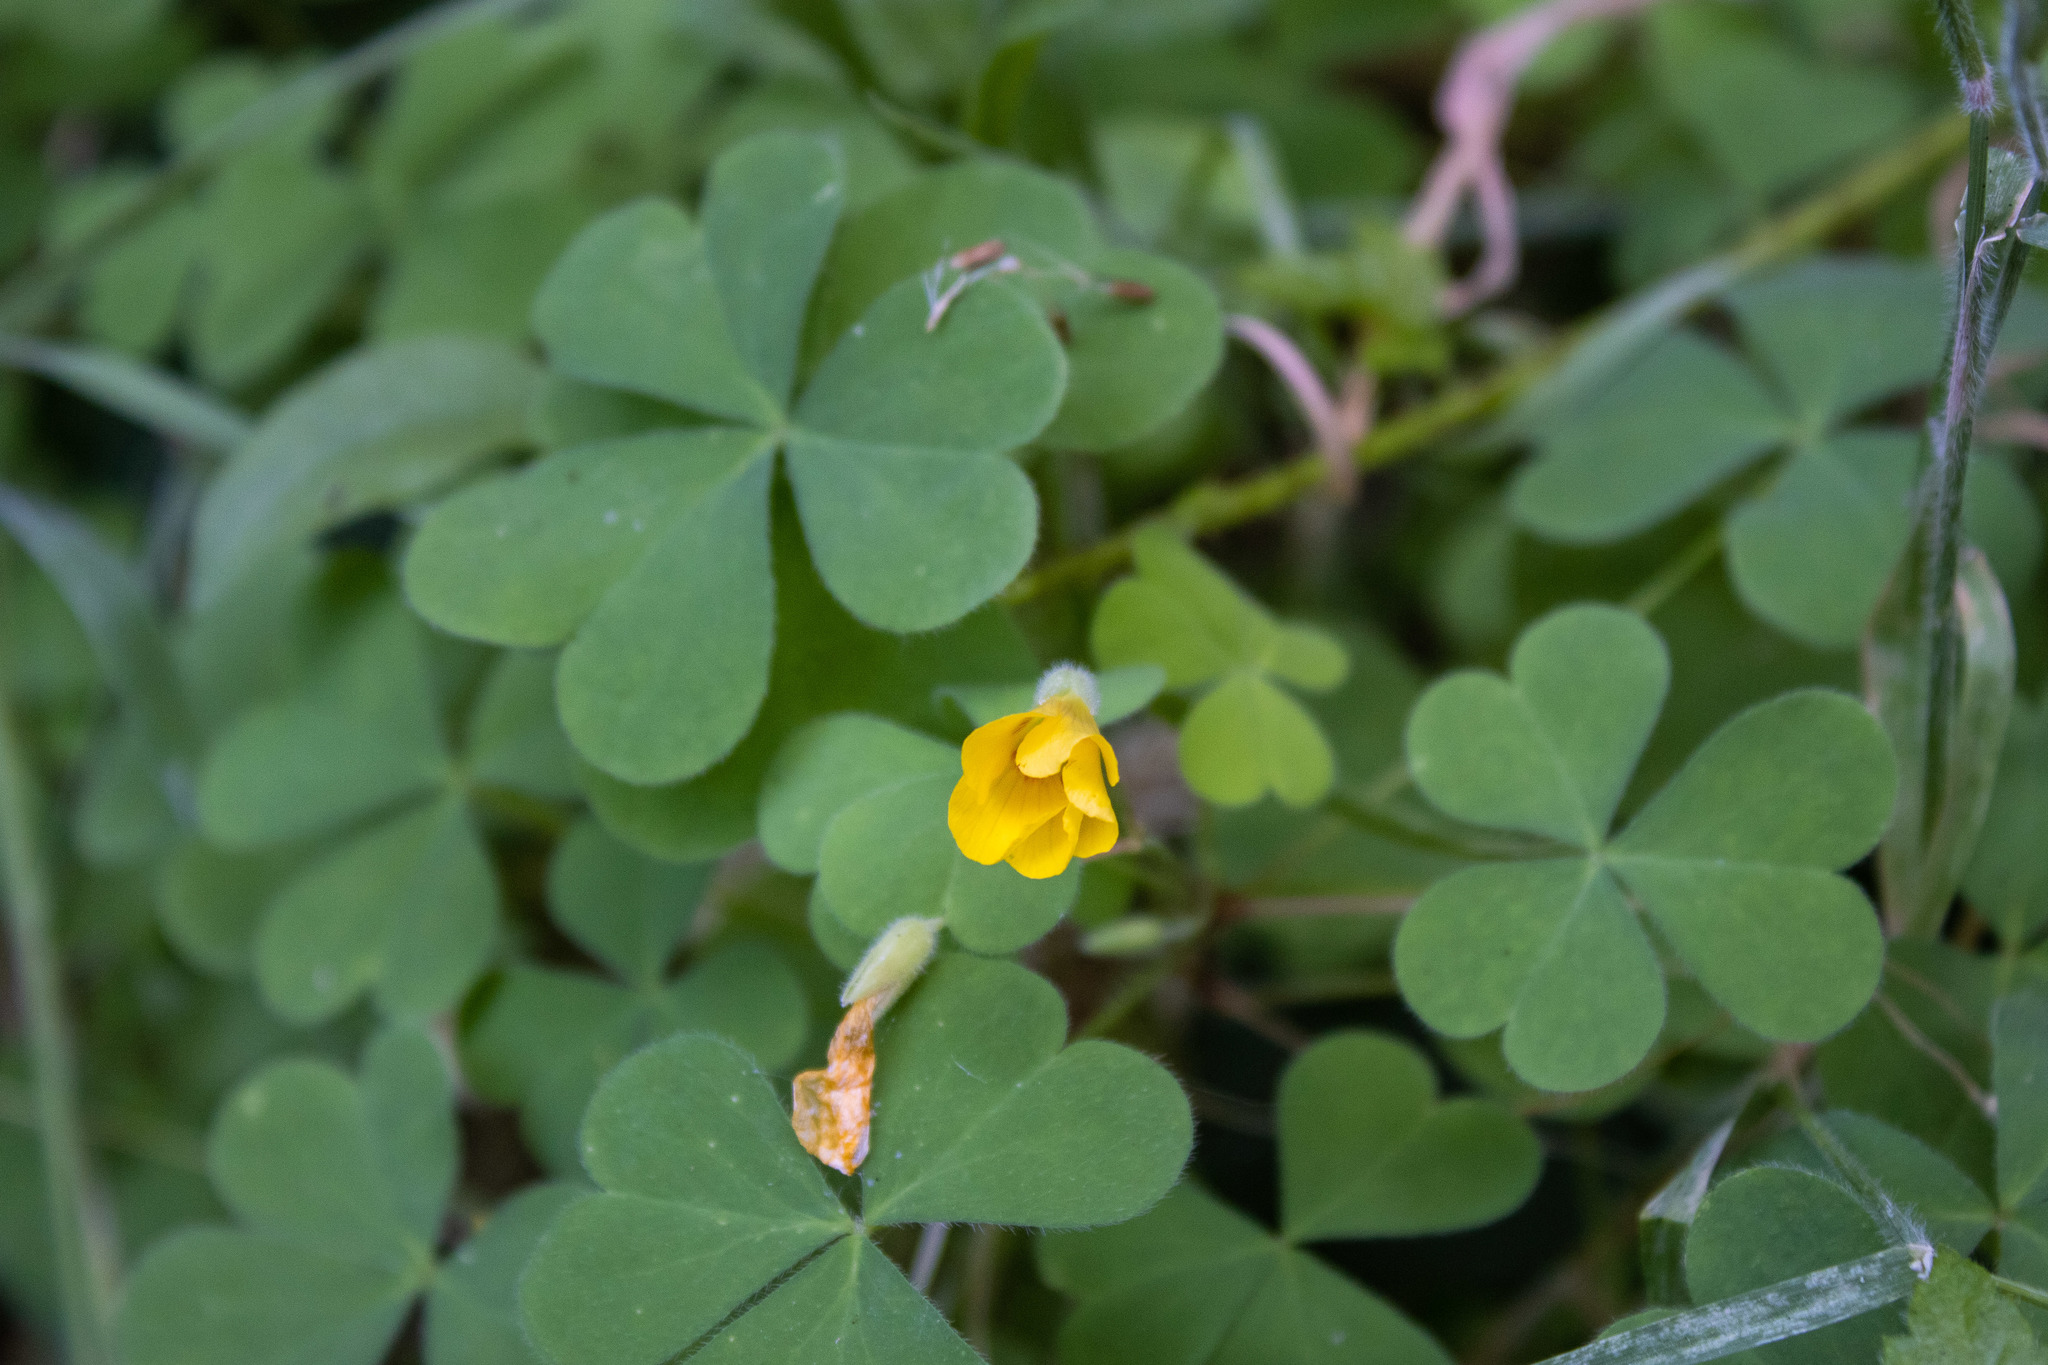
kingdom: Plantae
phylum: Tracheophyta
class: Magnoliopsida
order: Oxalidales
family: Oxalidaceae
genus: Oxalis
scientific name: Oxalis corniculata
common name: Procumbent yellow-sorrel
